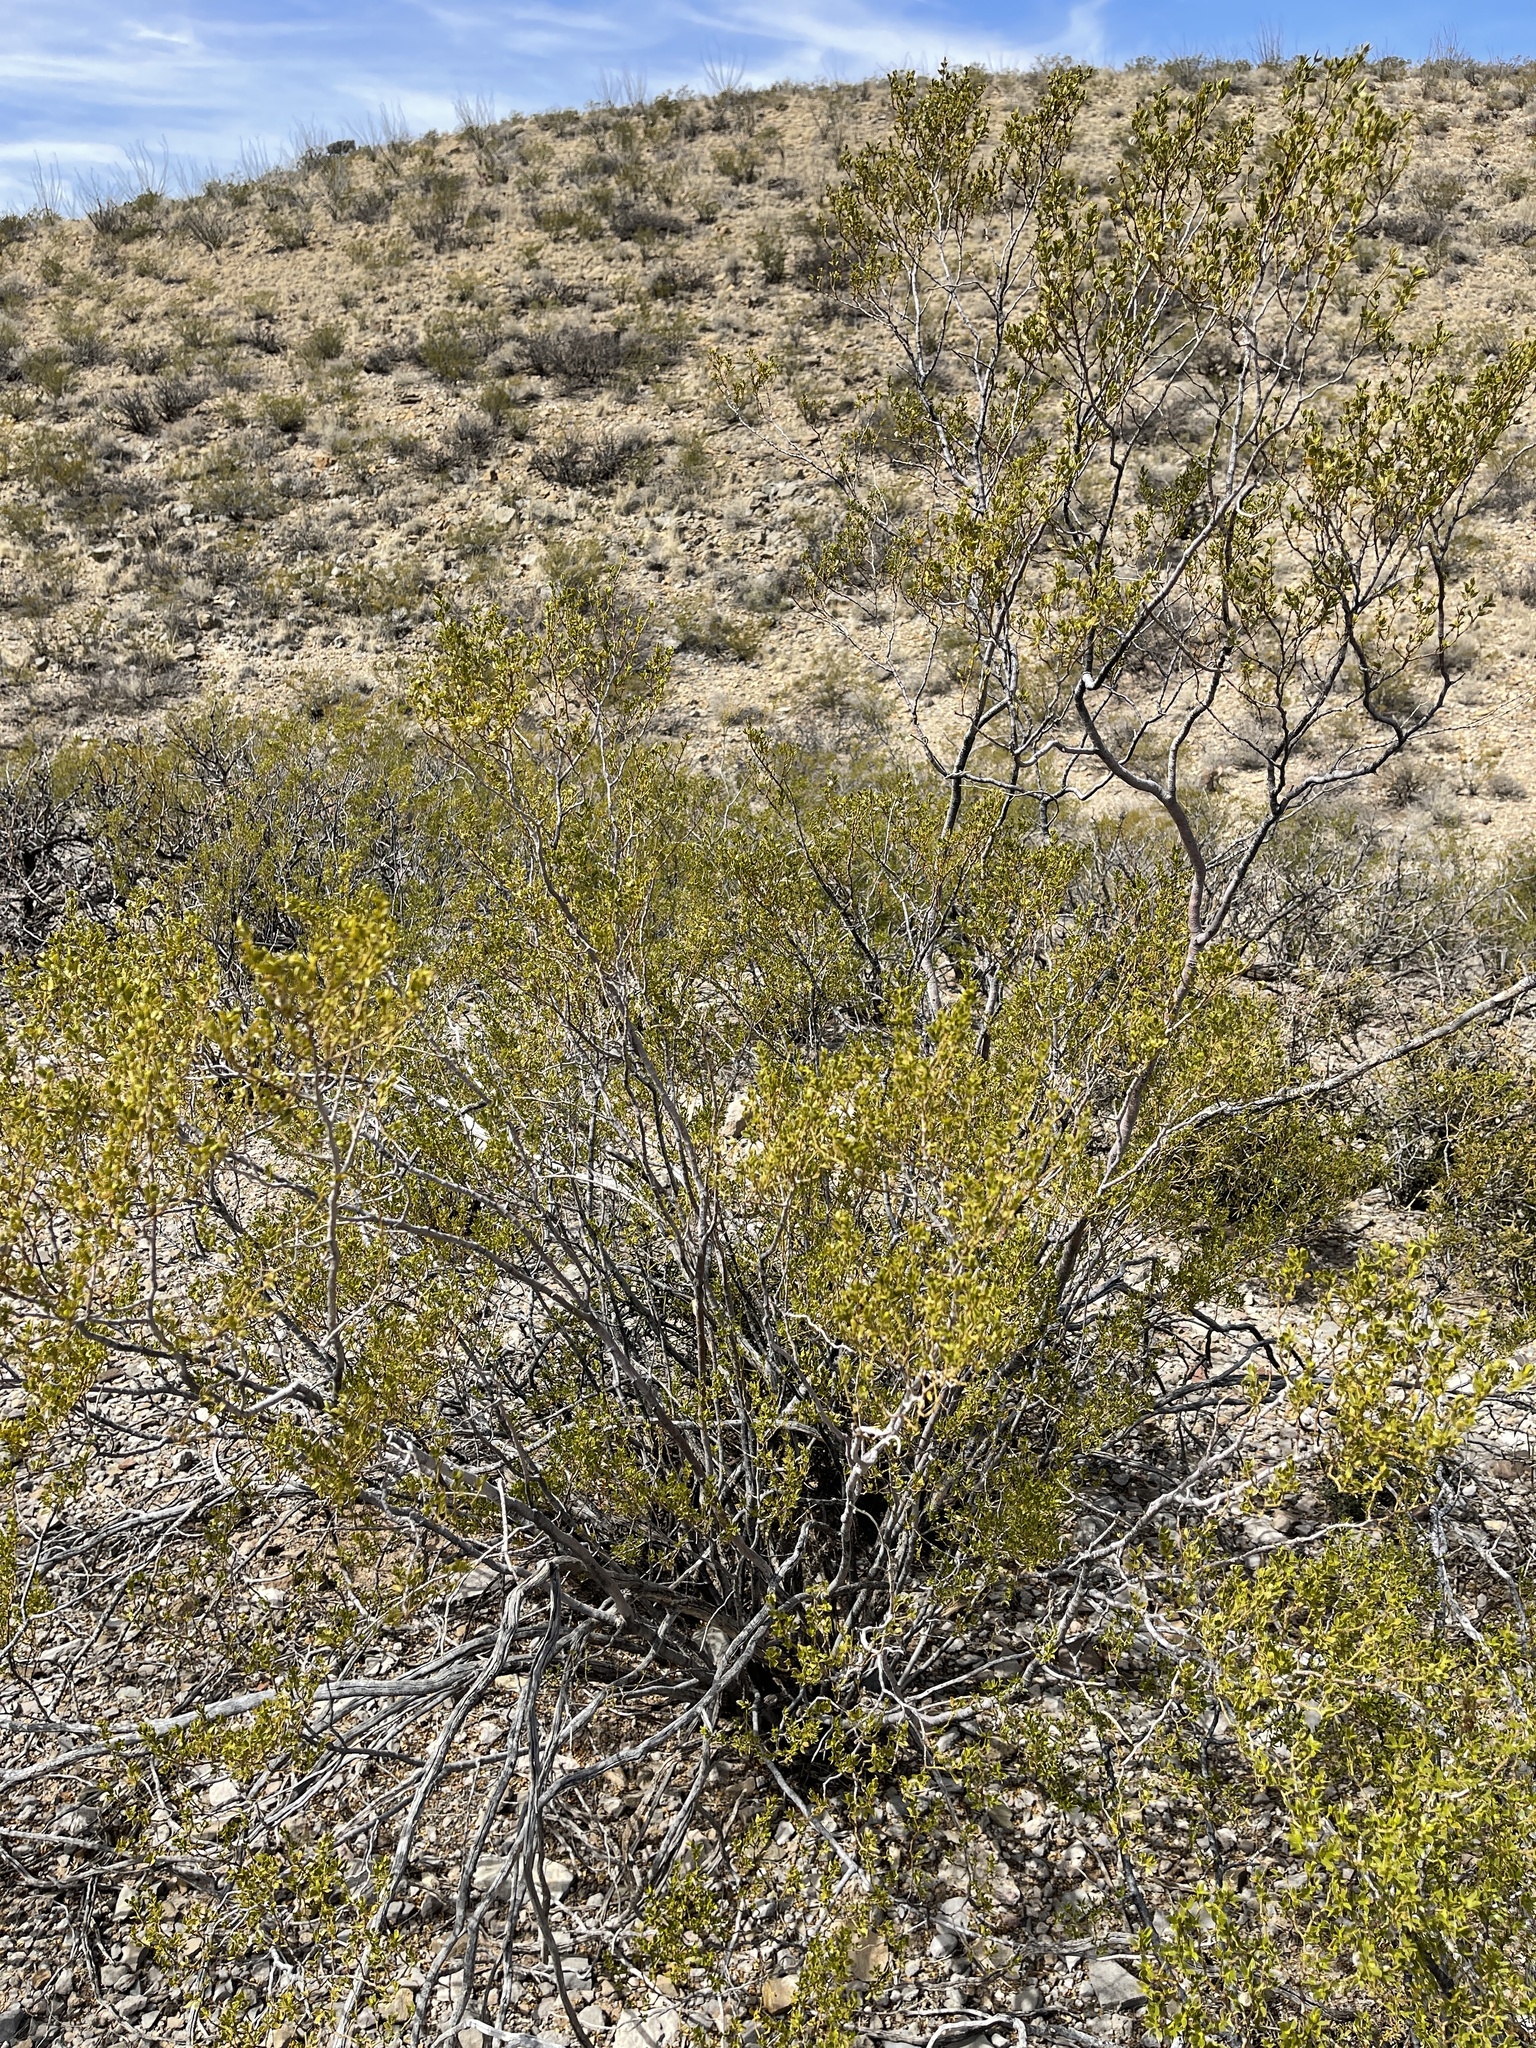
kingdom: Plantae
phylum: Tracheophyta
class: Magnoliopsida
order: Zygophyllales
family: Zygophyllaceae
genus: Larrea
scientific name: Larrea tridentata
